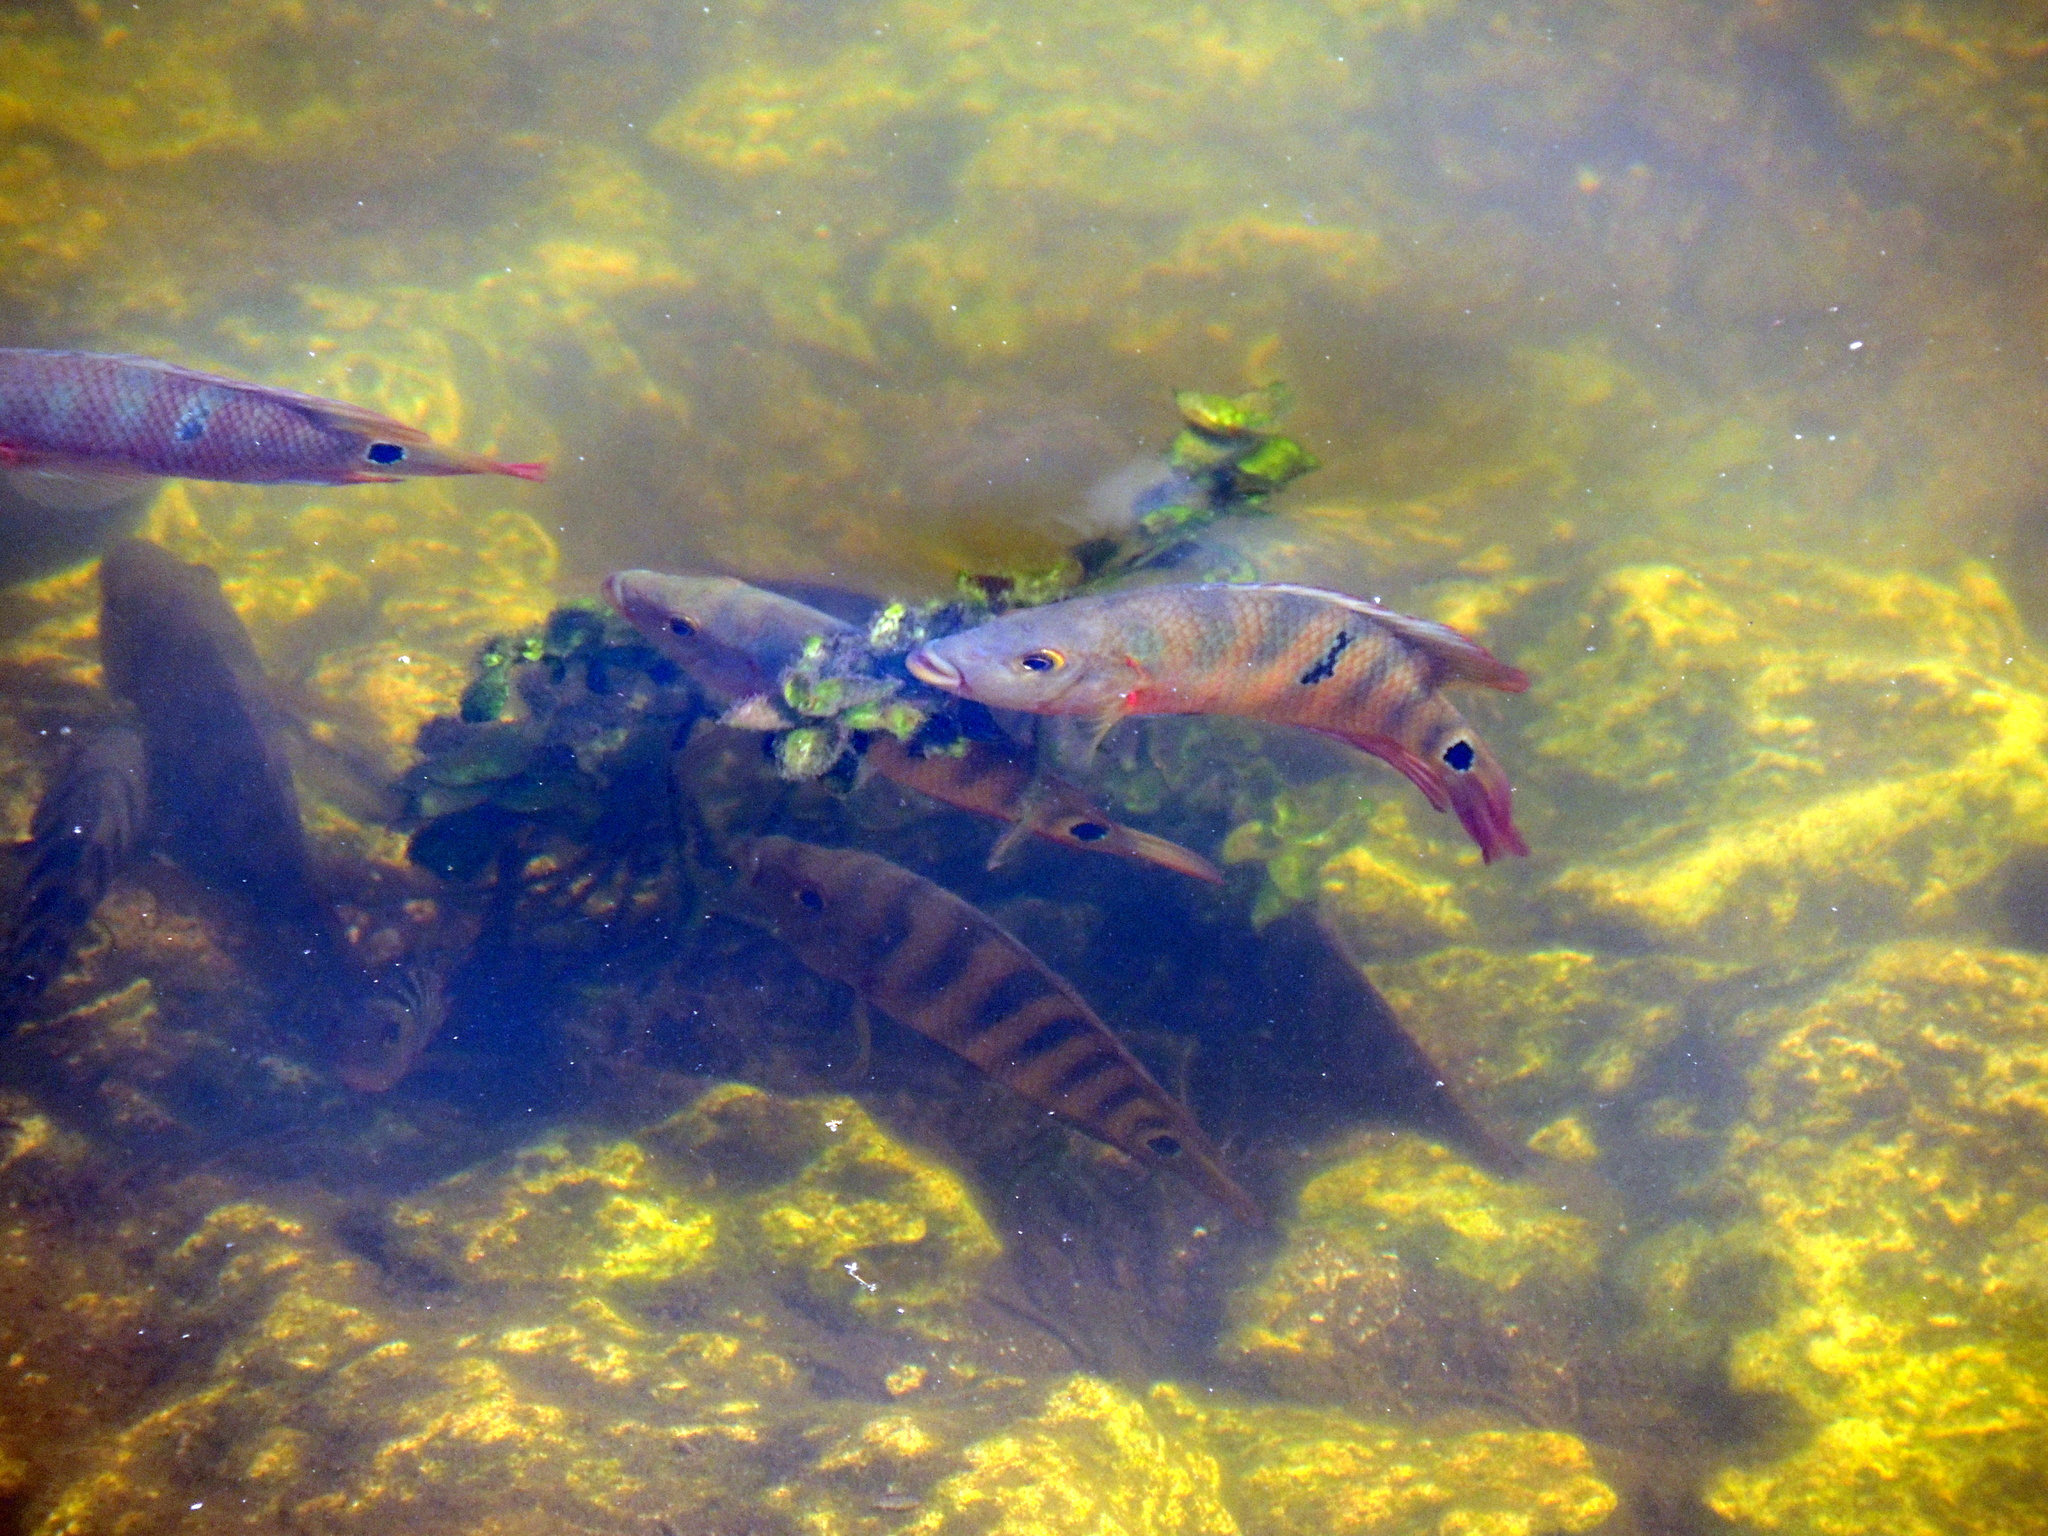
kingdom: Animalia
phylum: Chordata
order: Perciformes
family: Cichlidae
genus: Mayaheros
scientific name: Mayaheros urophthalmus
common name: Mayan cichlid
